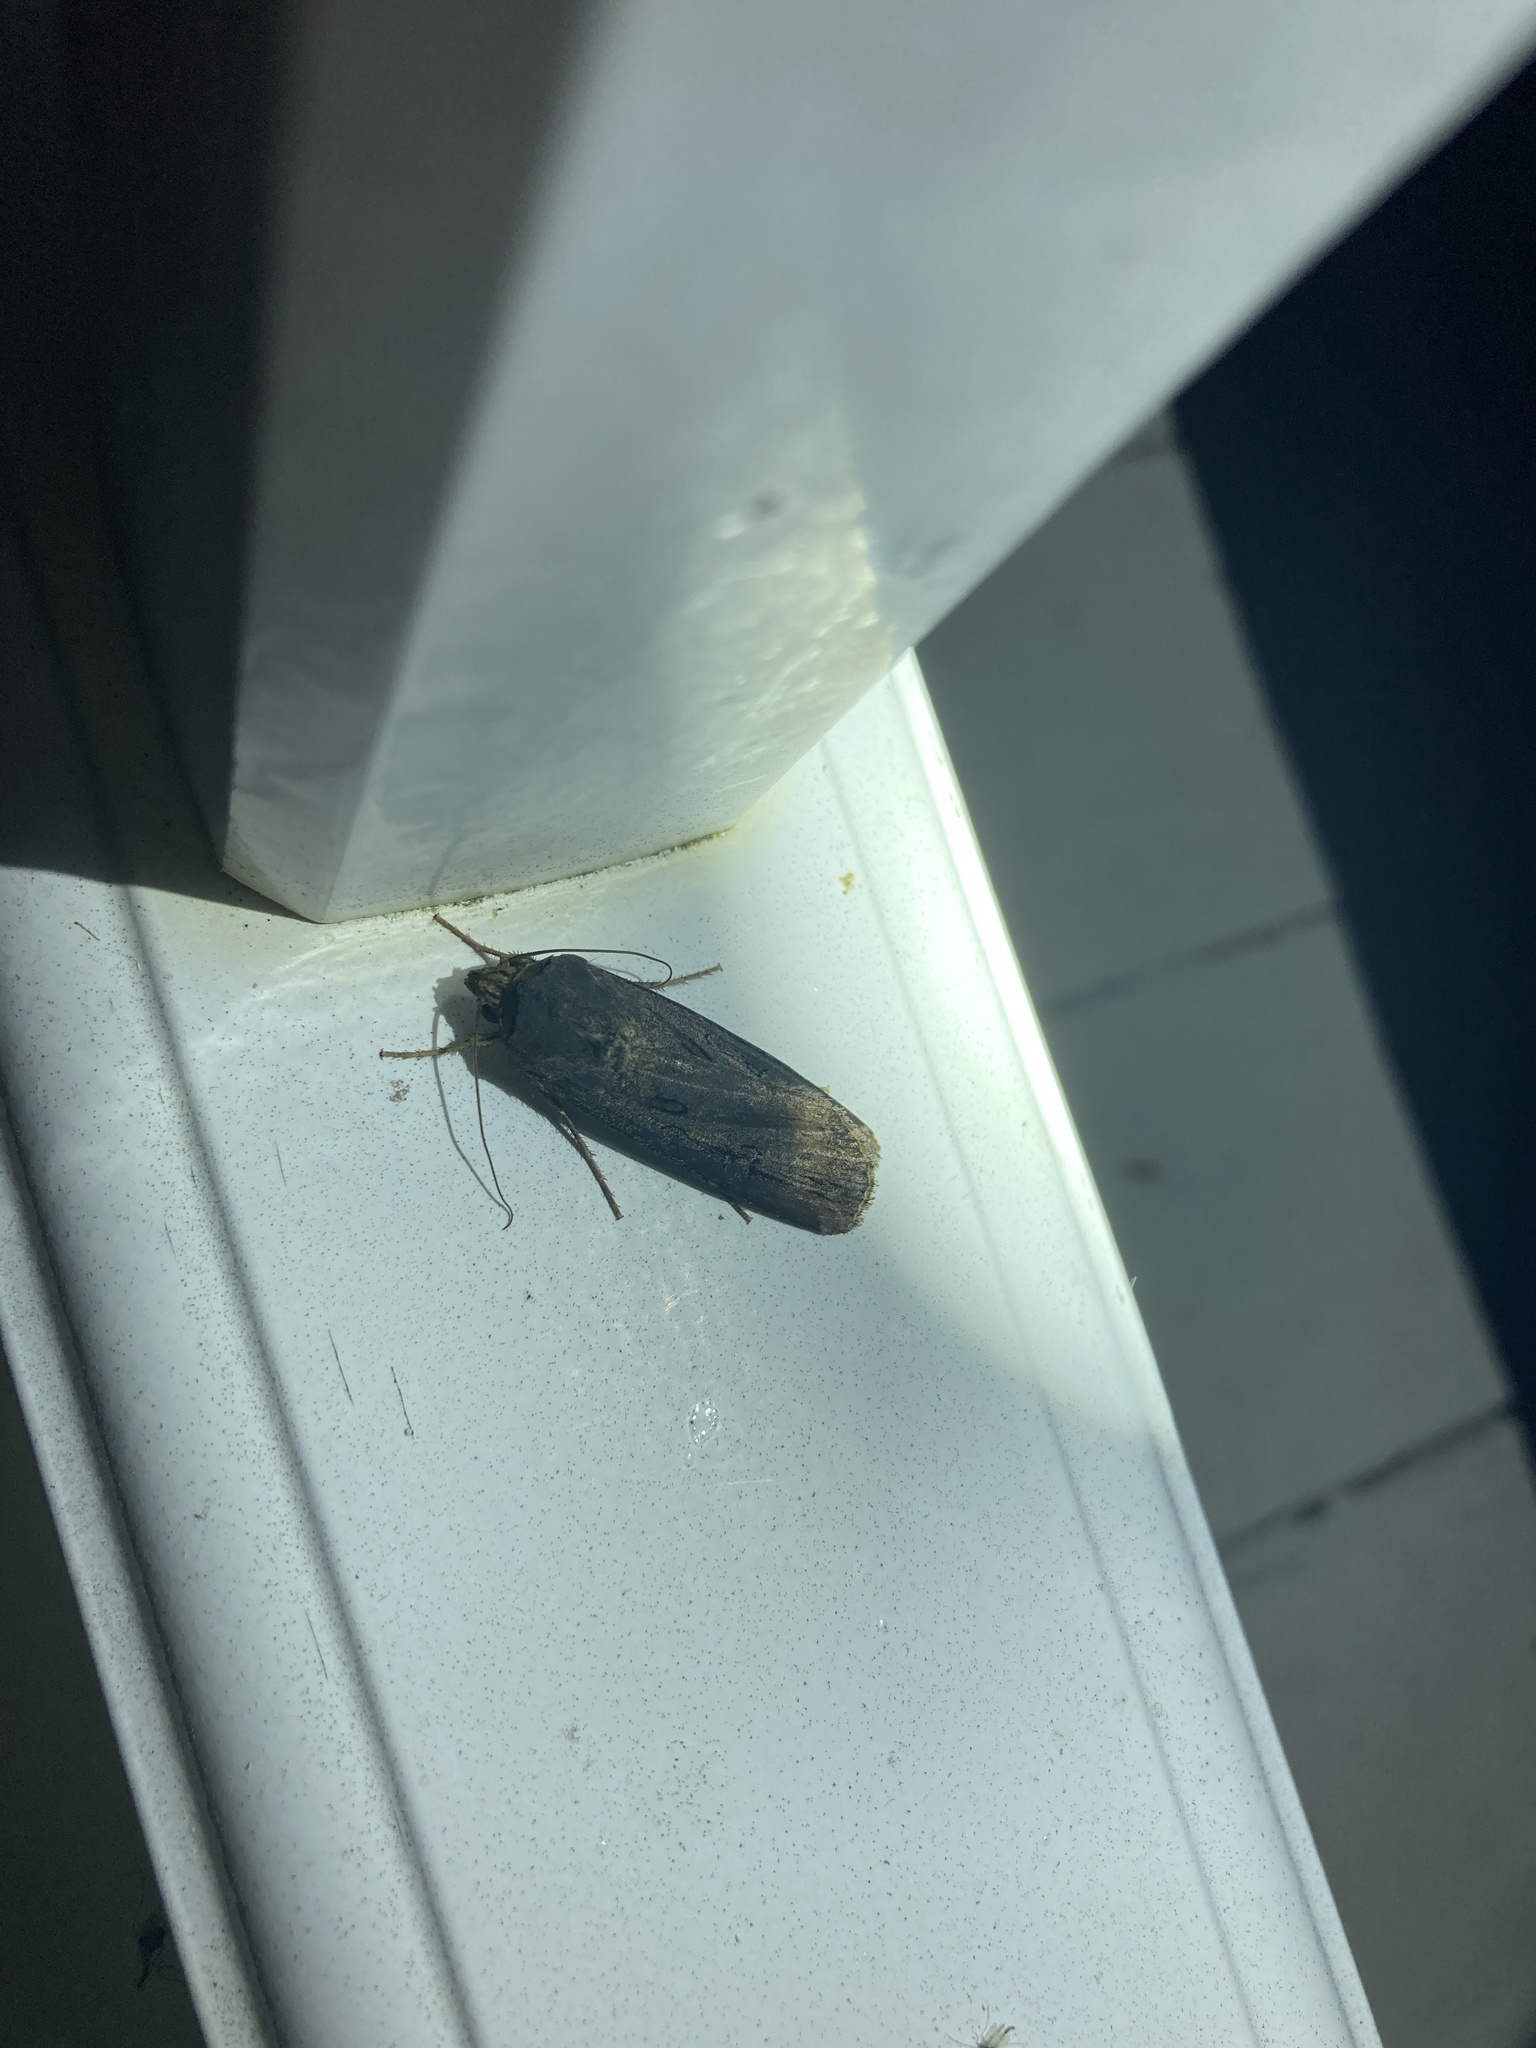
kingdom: Animalia
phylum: Arthropoda
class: Insecta
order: Lepidoptera
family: Noctuidae
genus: Agrotis
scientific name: Agrotis ipsilon
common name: Dark sword-grass
